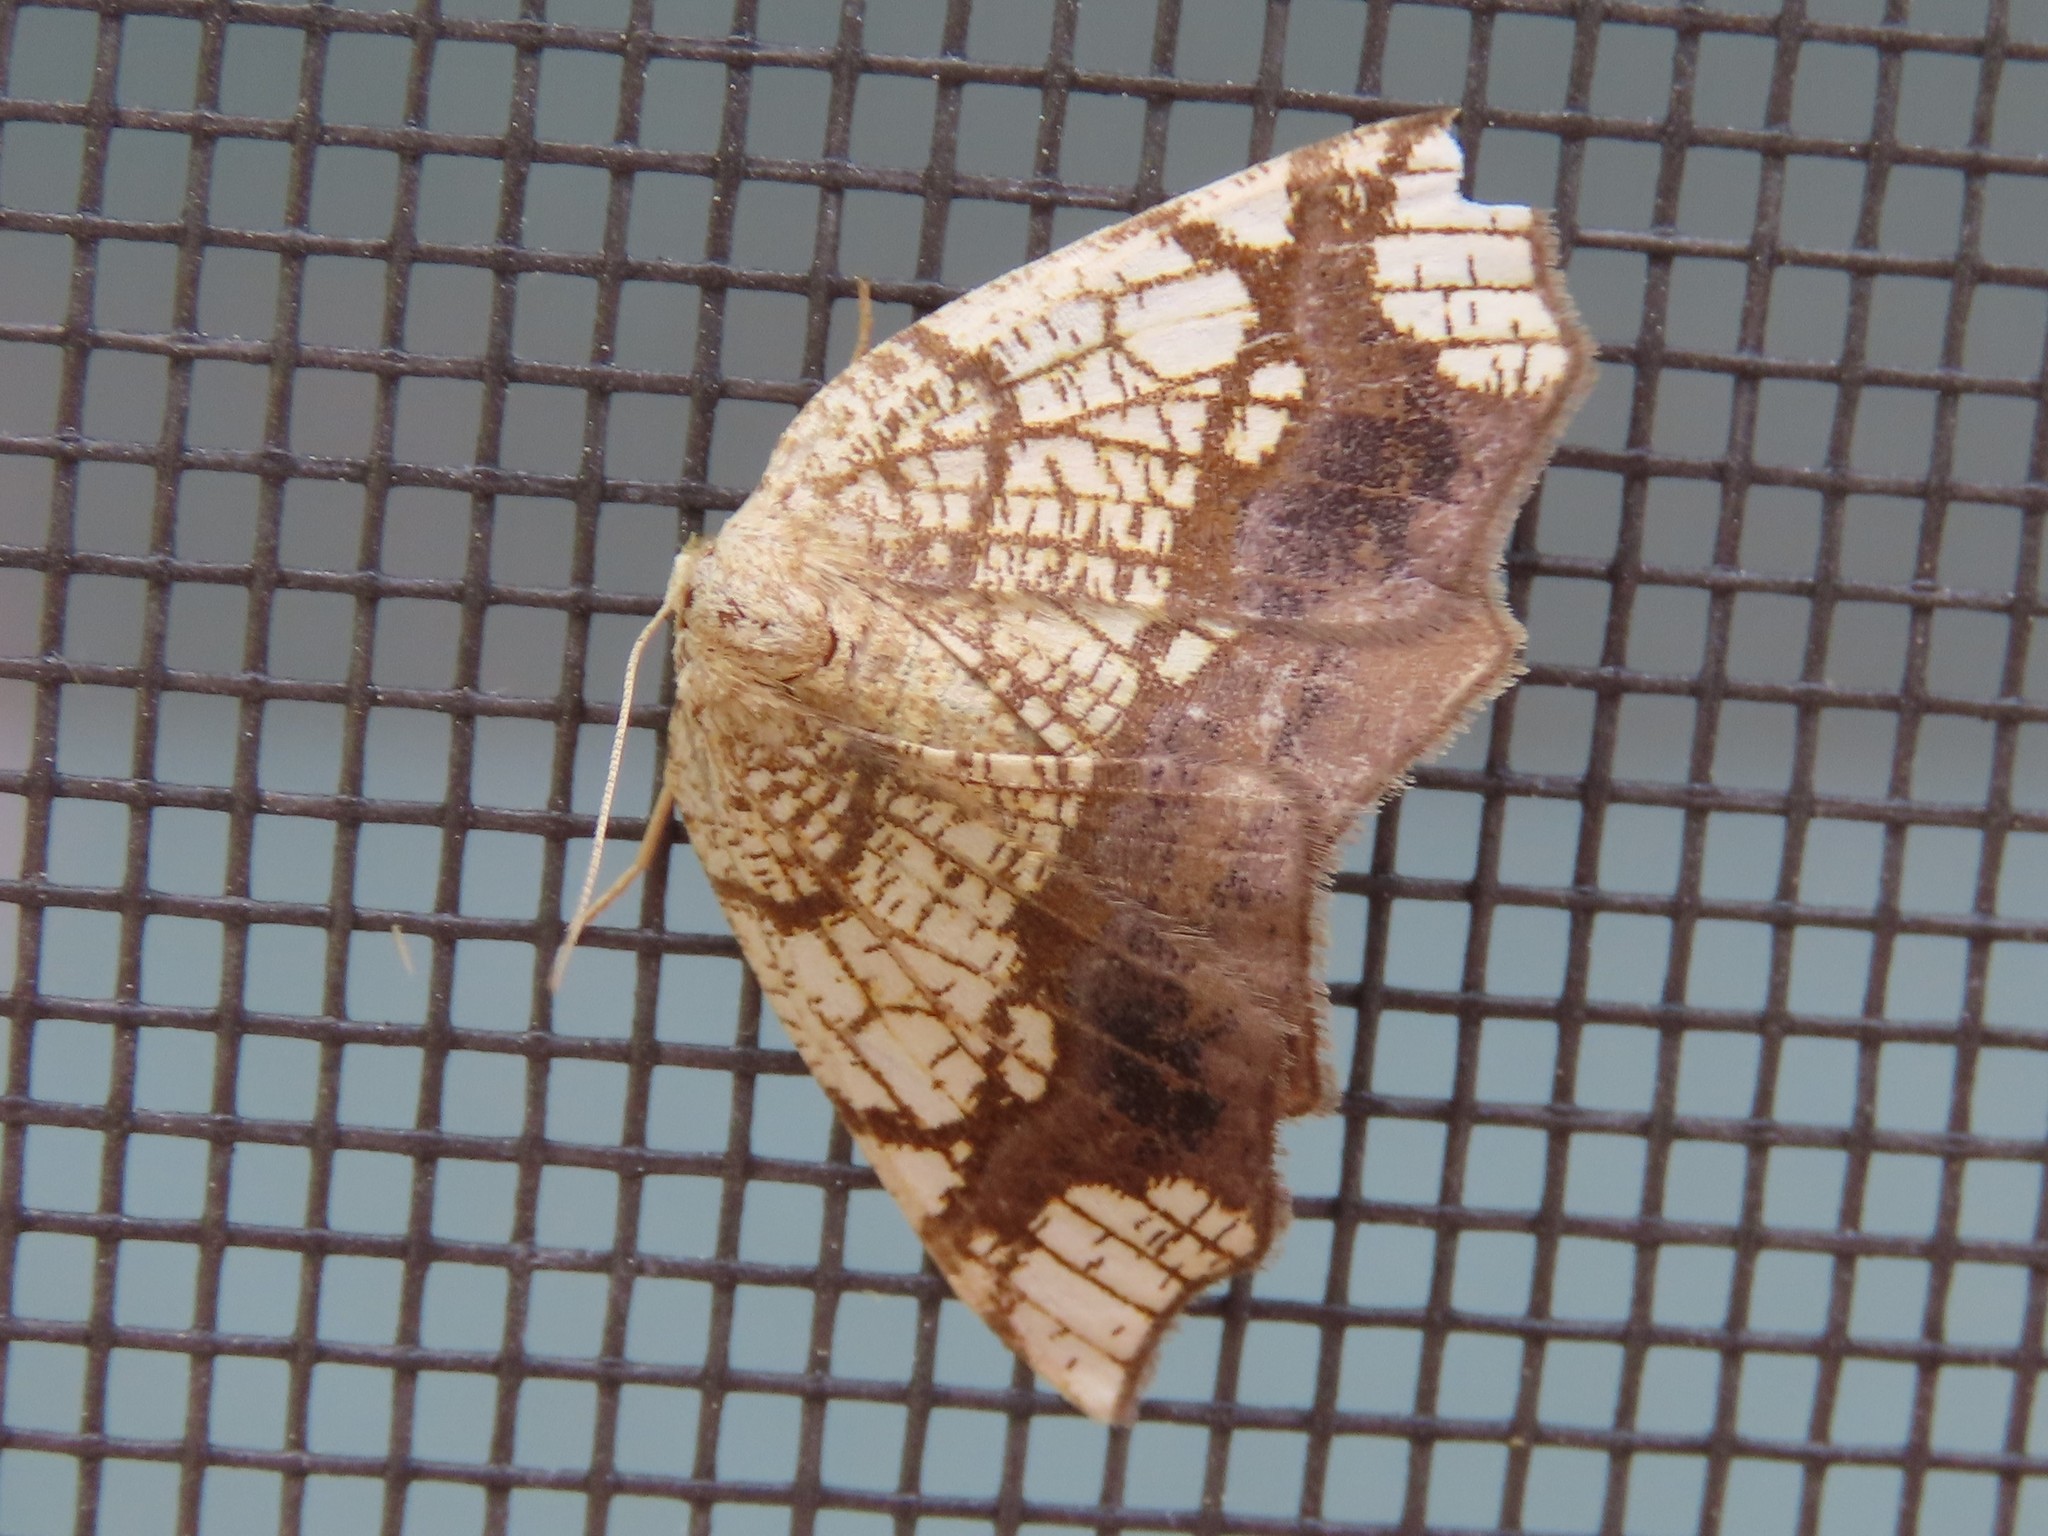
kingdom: Animalia
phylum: Arthropoda
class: Insecta
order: Lepidoptera
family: Geometridae
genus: Nematocampa
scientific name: Nematocampa resistaria
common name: Horned spanworm moth
